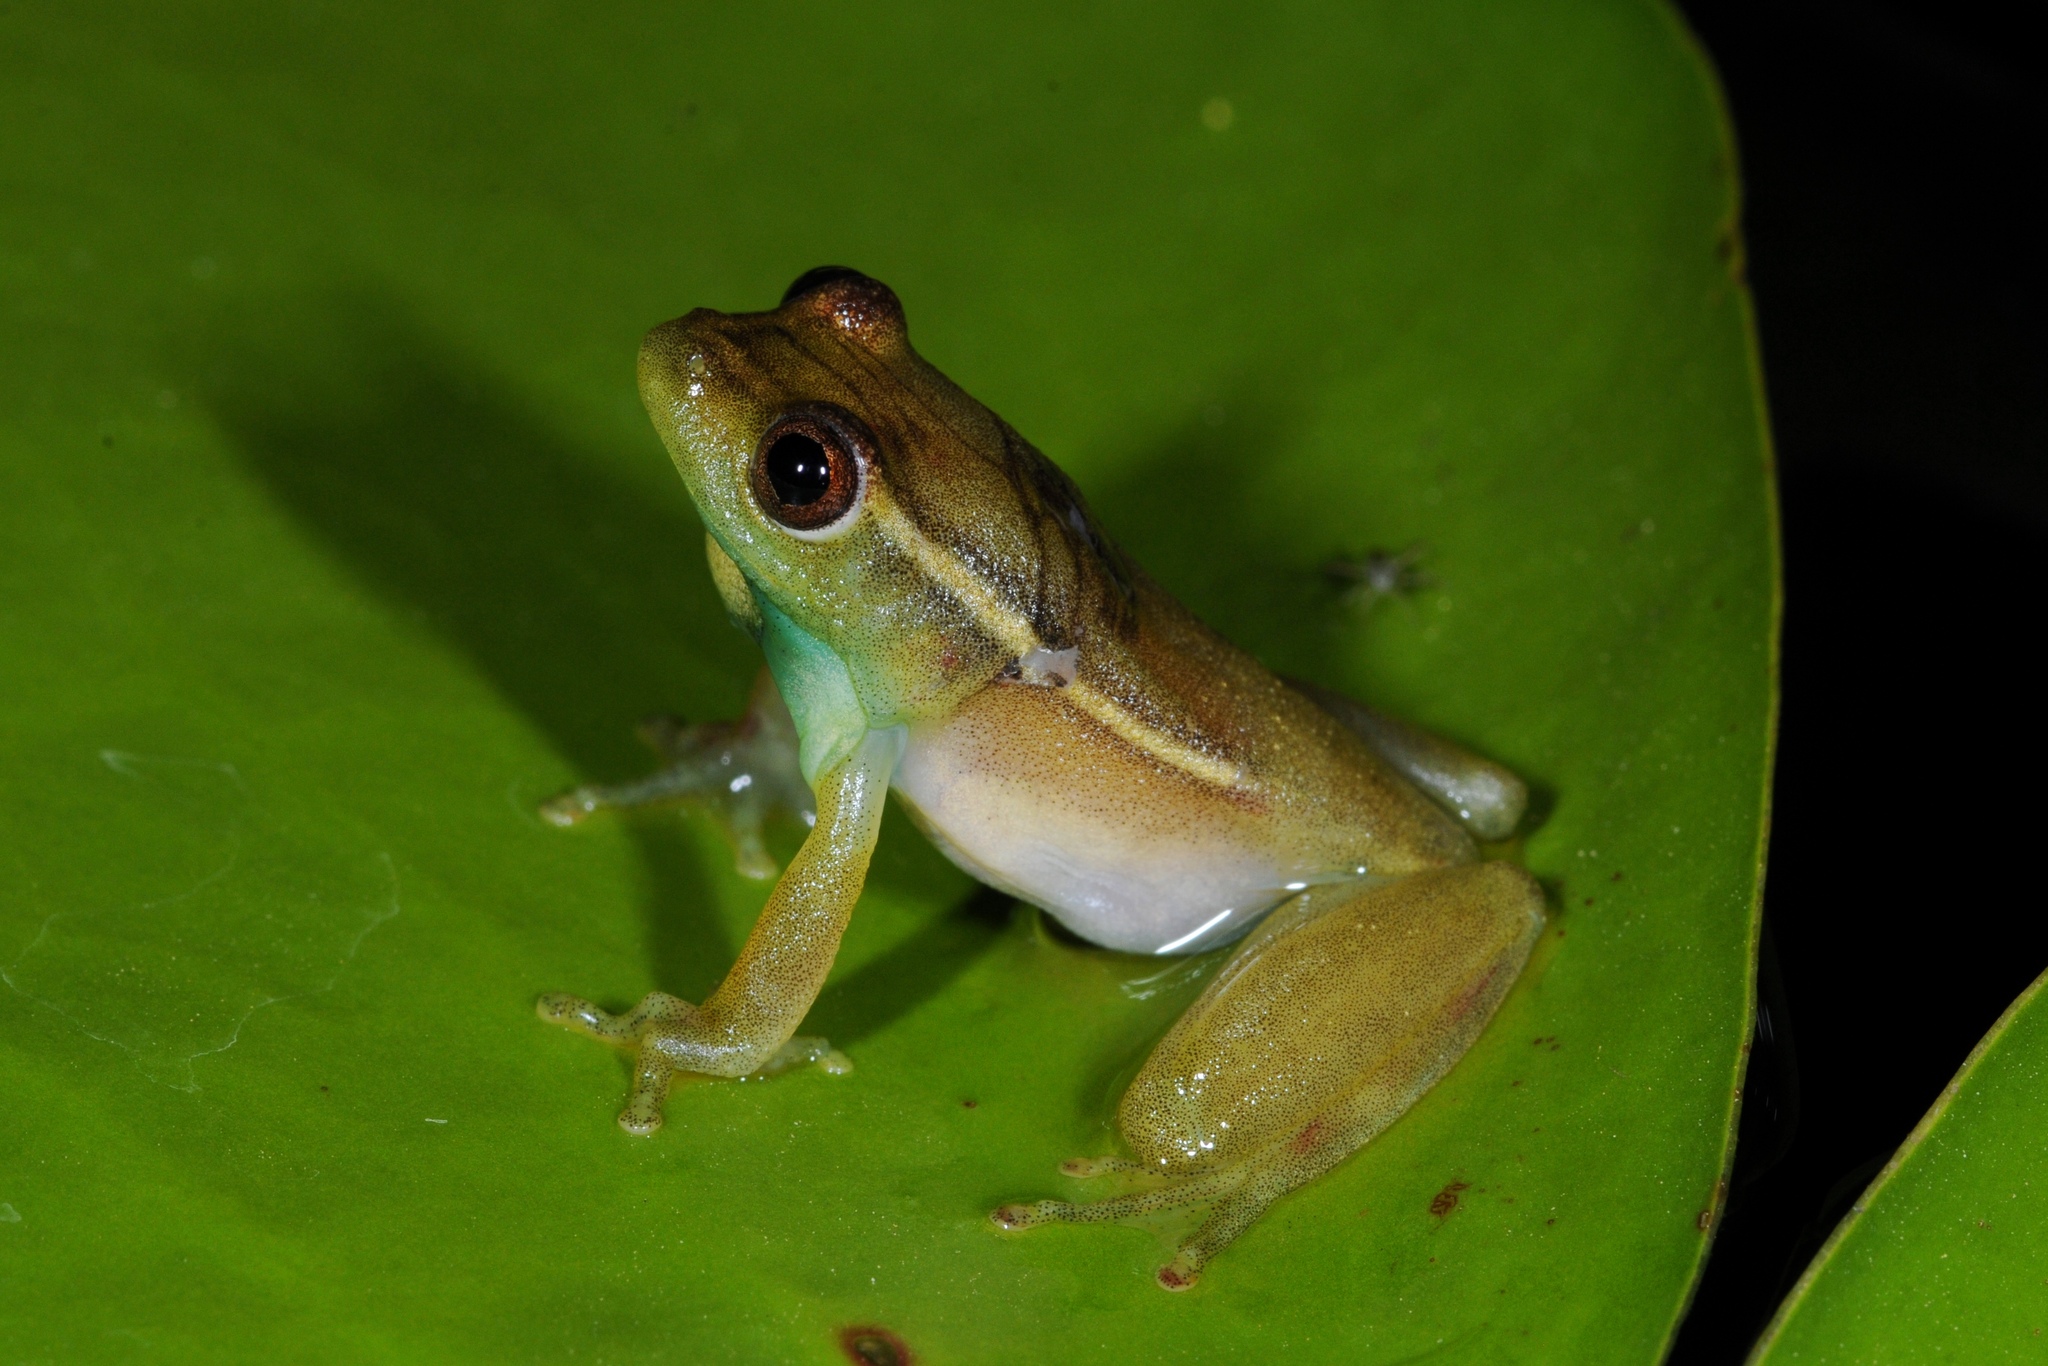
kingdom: Animalia
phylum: Chordata
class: Amphibia
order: Anura
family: Hyperoliidae
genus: Hyperolius
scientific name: Hyperolius argus
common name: Argus reed frog
